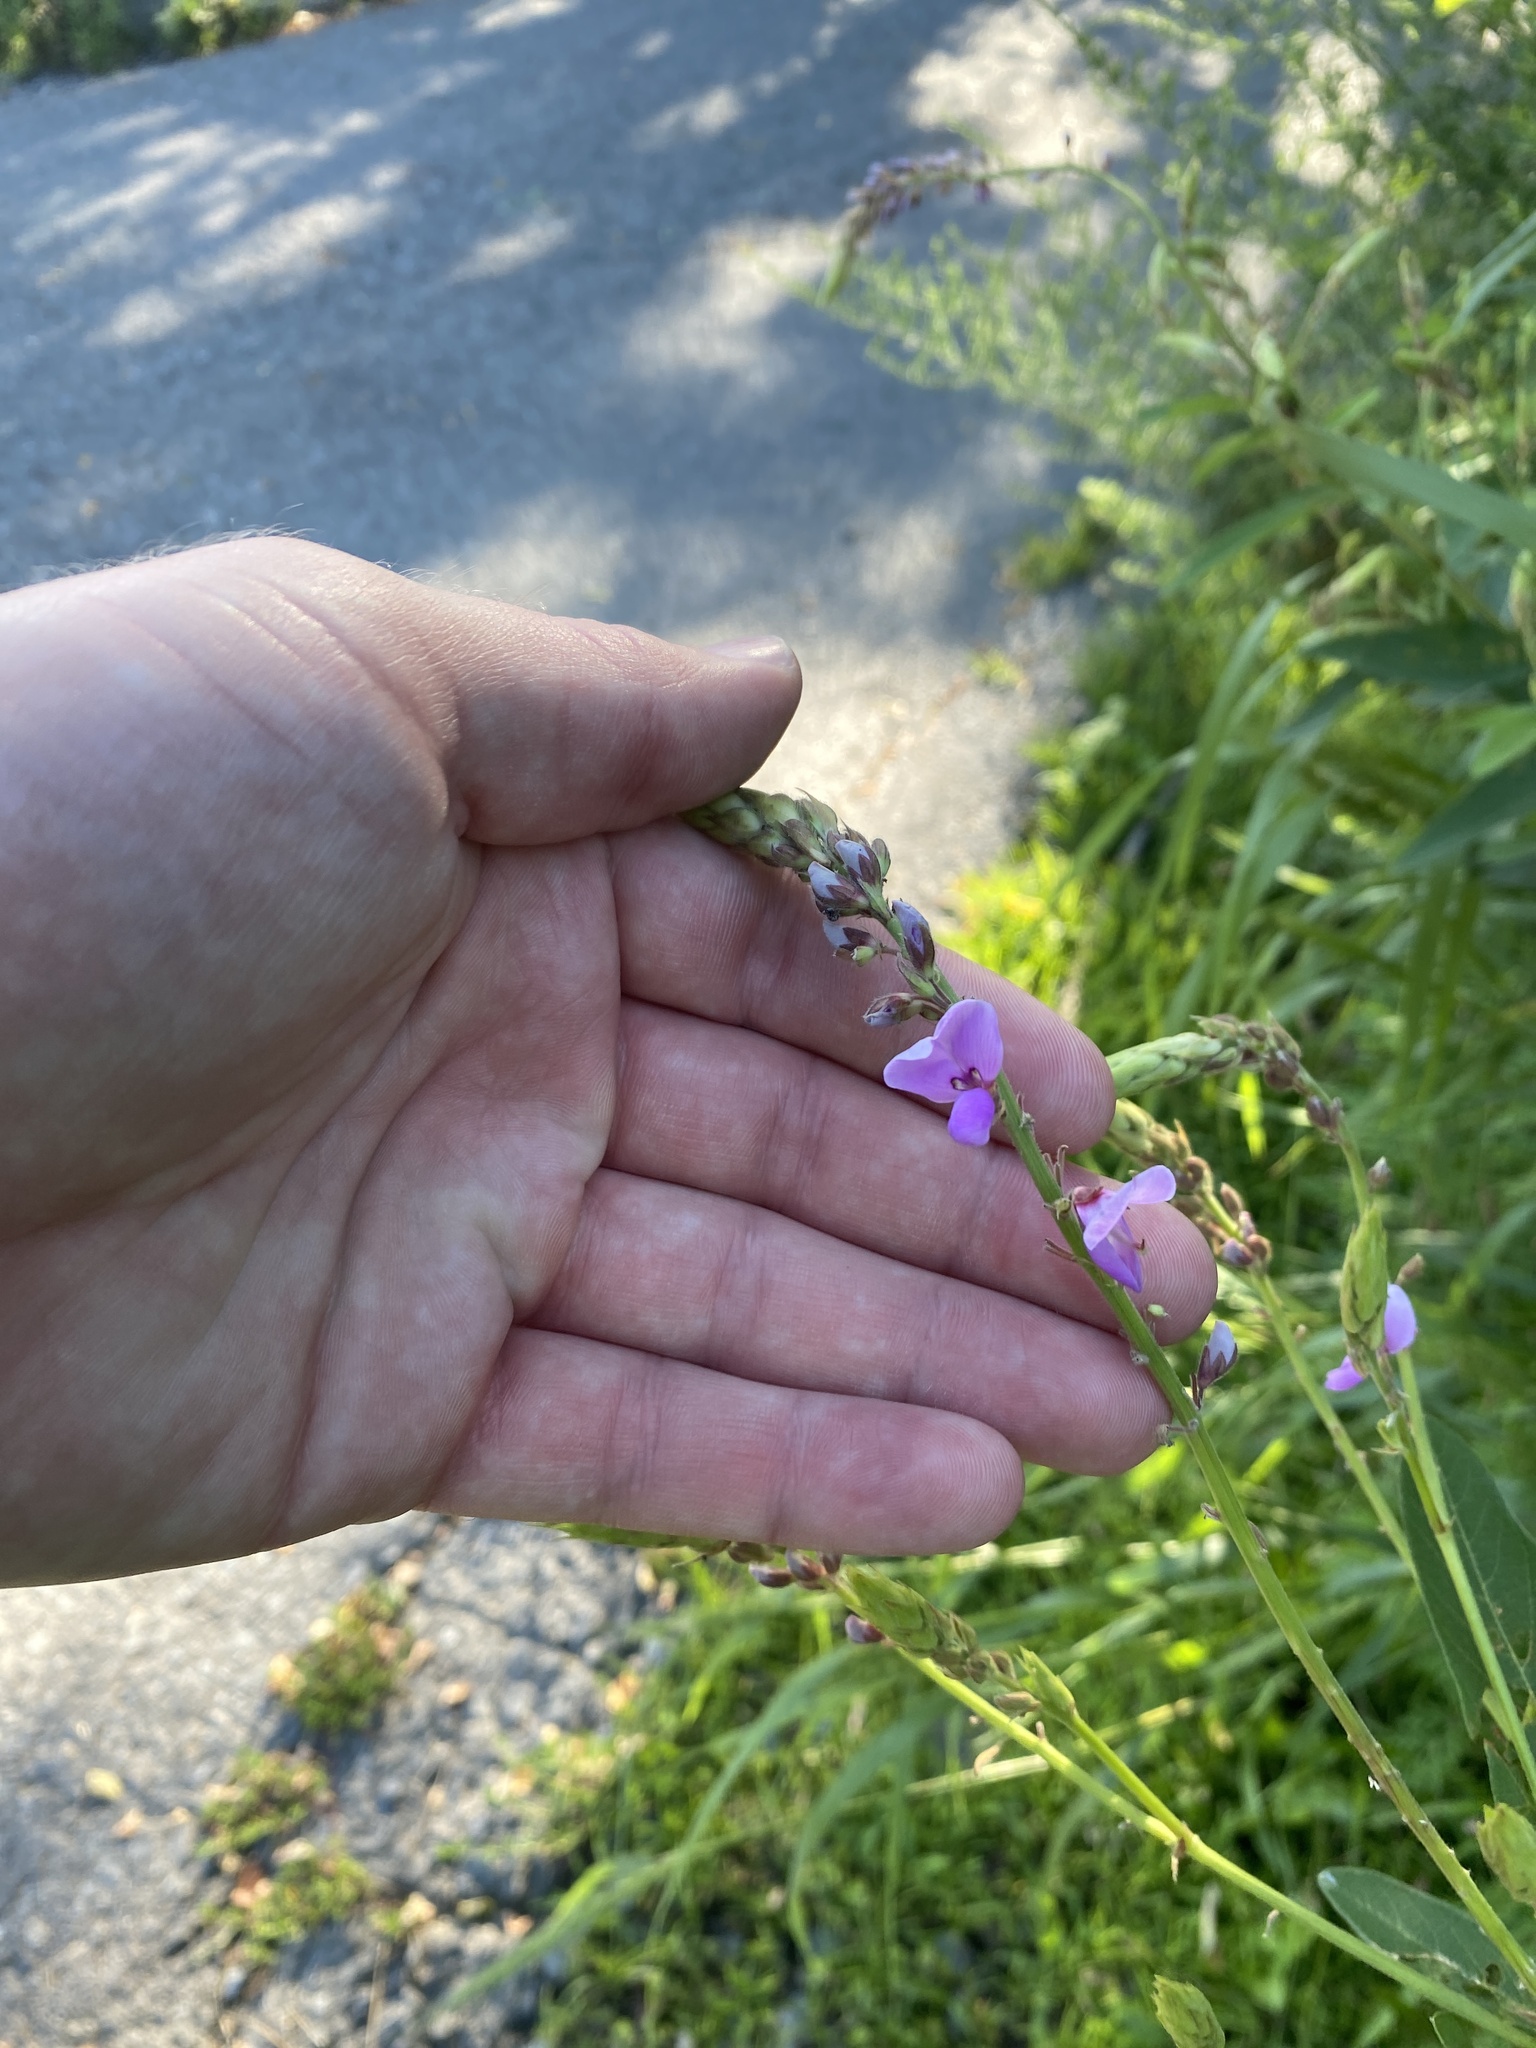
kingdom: Plantae
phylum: Tracheophyta
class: Magnoliopsida
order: Fabales
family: Fabaceae
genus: Desmodium
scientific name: Desmodium canadense
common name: Canada tick-trefoil
